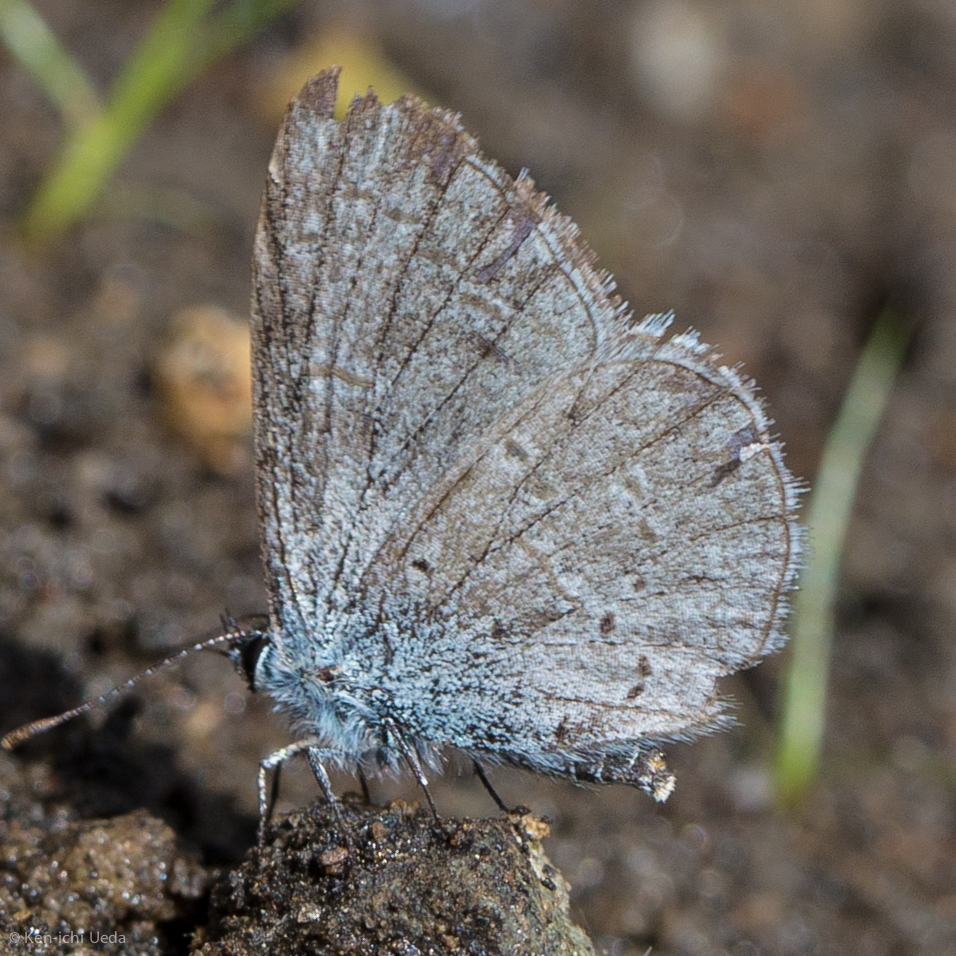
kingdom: Animalia
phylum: Arthropoda
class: Insecta
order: Lepidoptera
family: Lycaenidae
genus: Celastrina
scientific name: Celastrina ladon
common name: Spring azure
